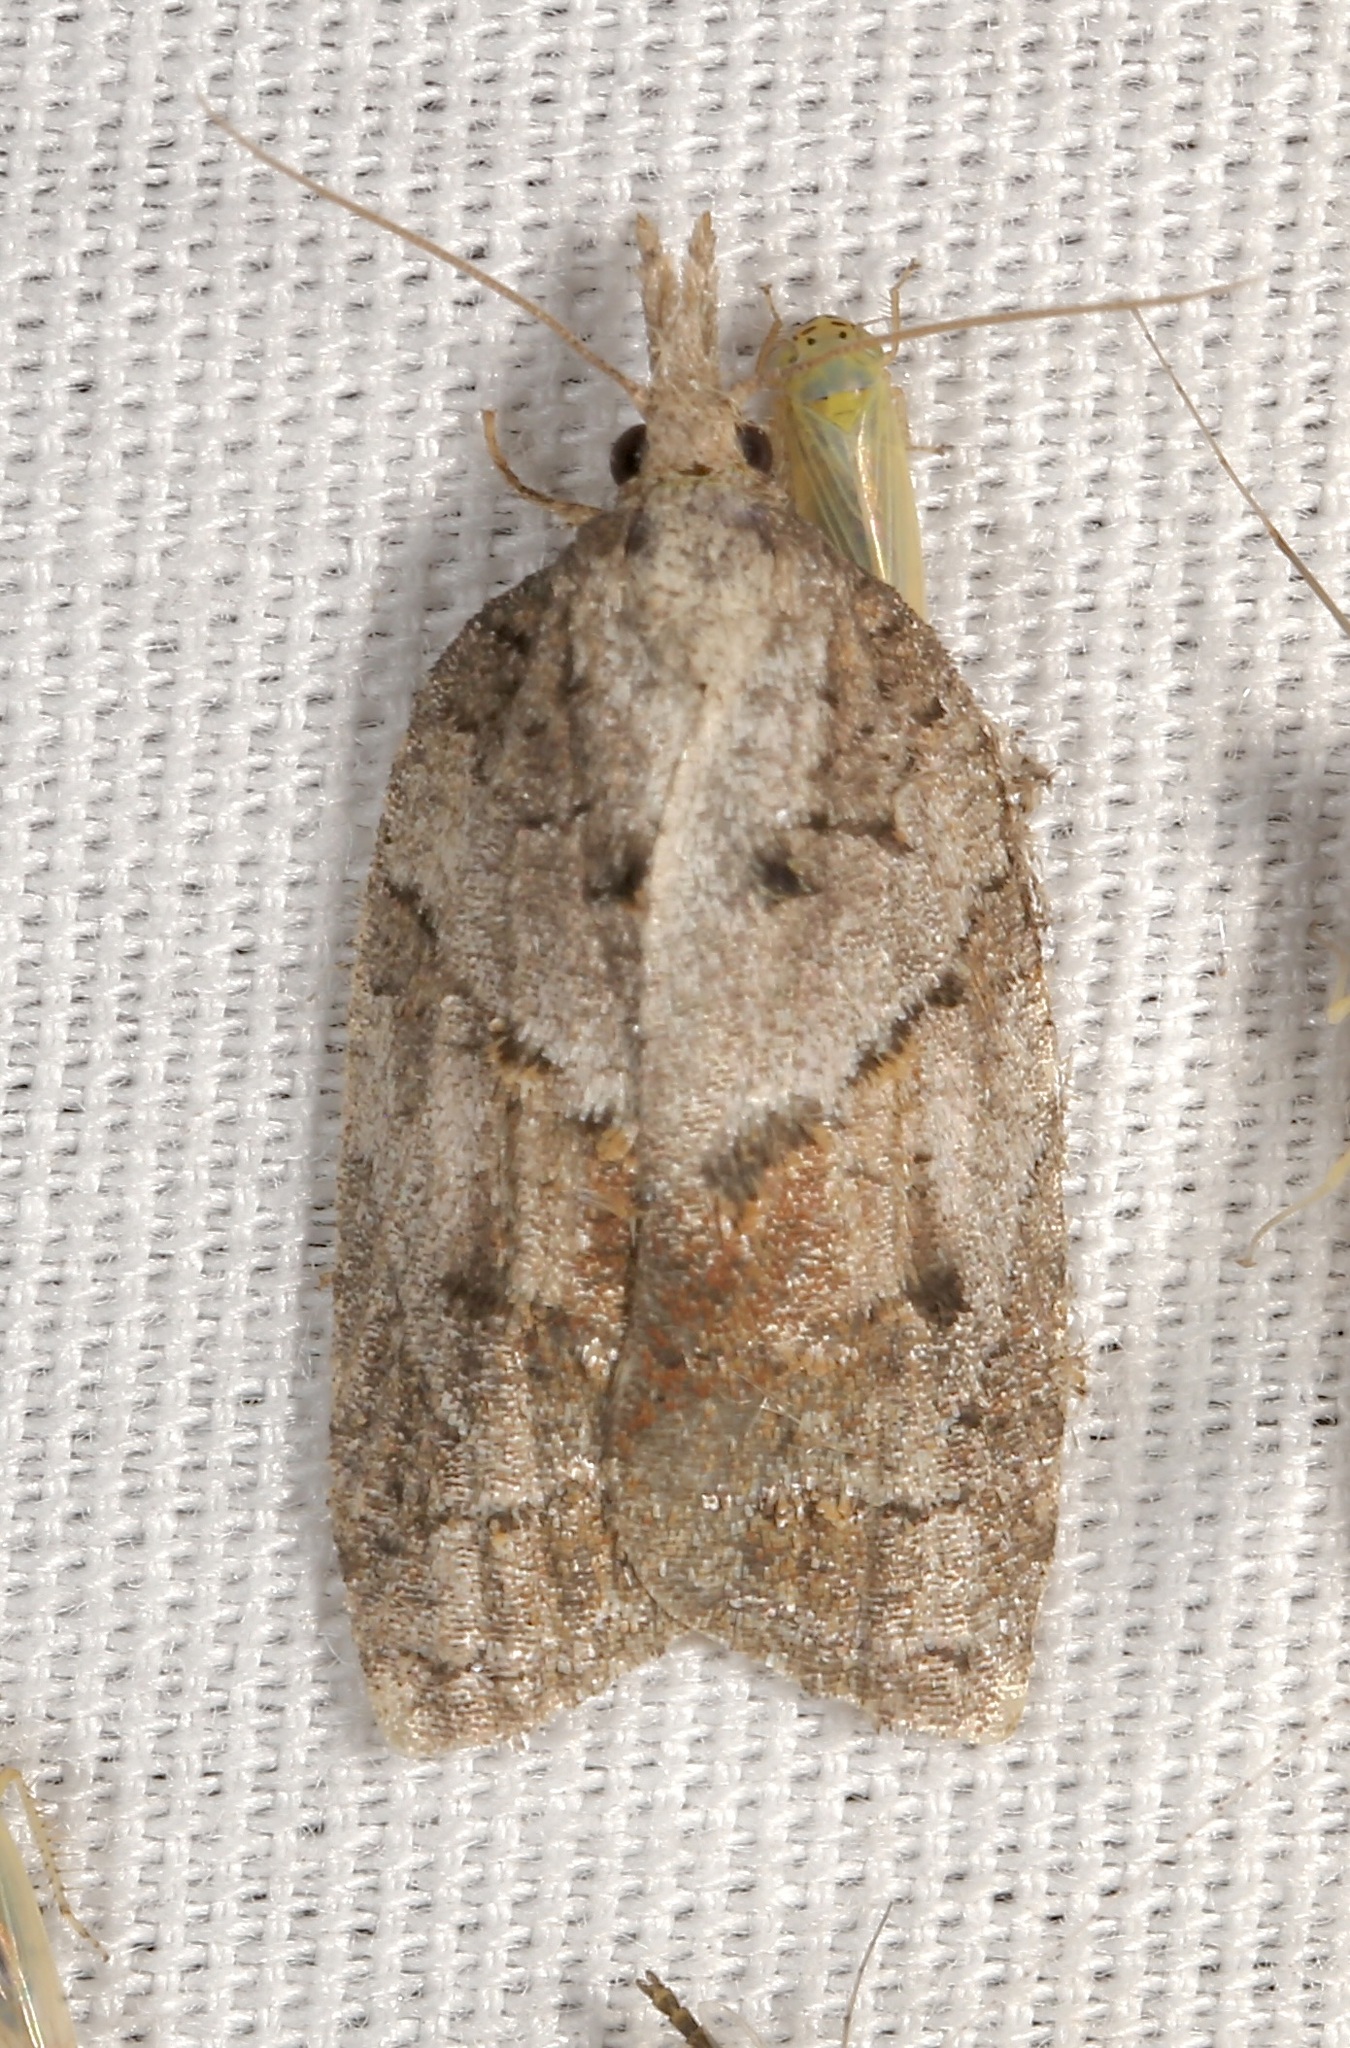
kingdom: Animalia
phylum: Arthropoda
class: Insecta
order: Lepidoptera
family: Tortricidae
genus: Platynota
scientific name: Platynota idaeusalis
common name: Tufted apple bud moth
